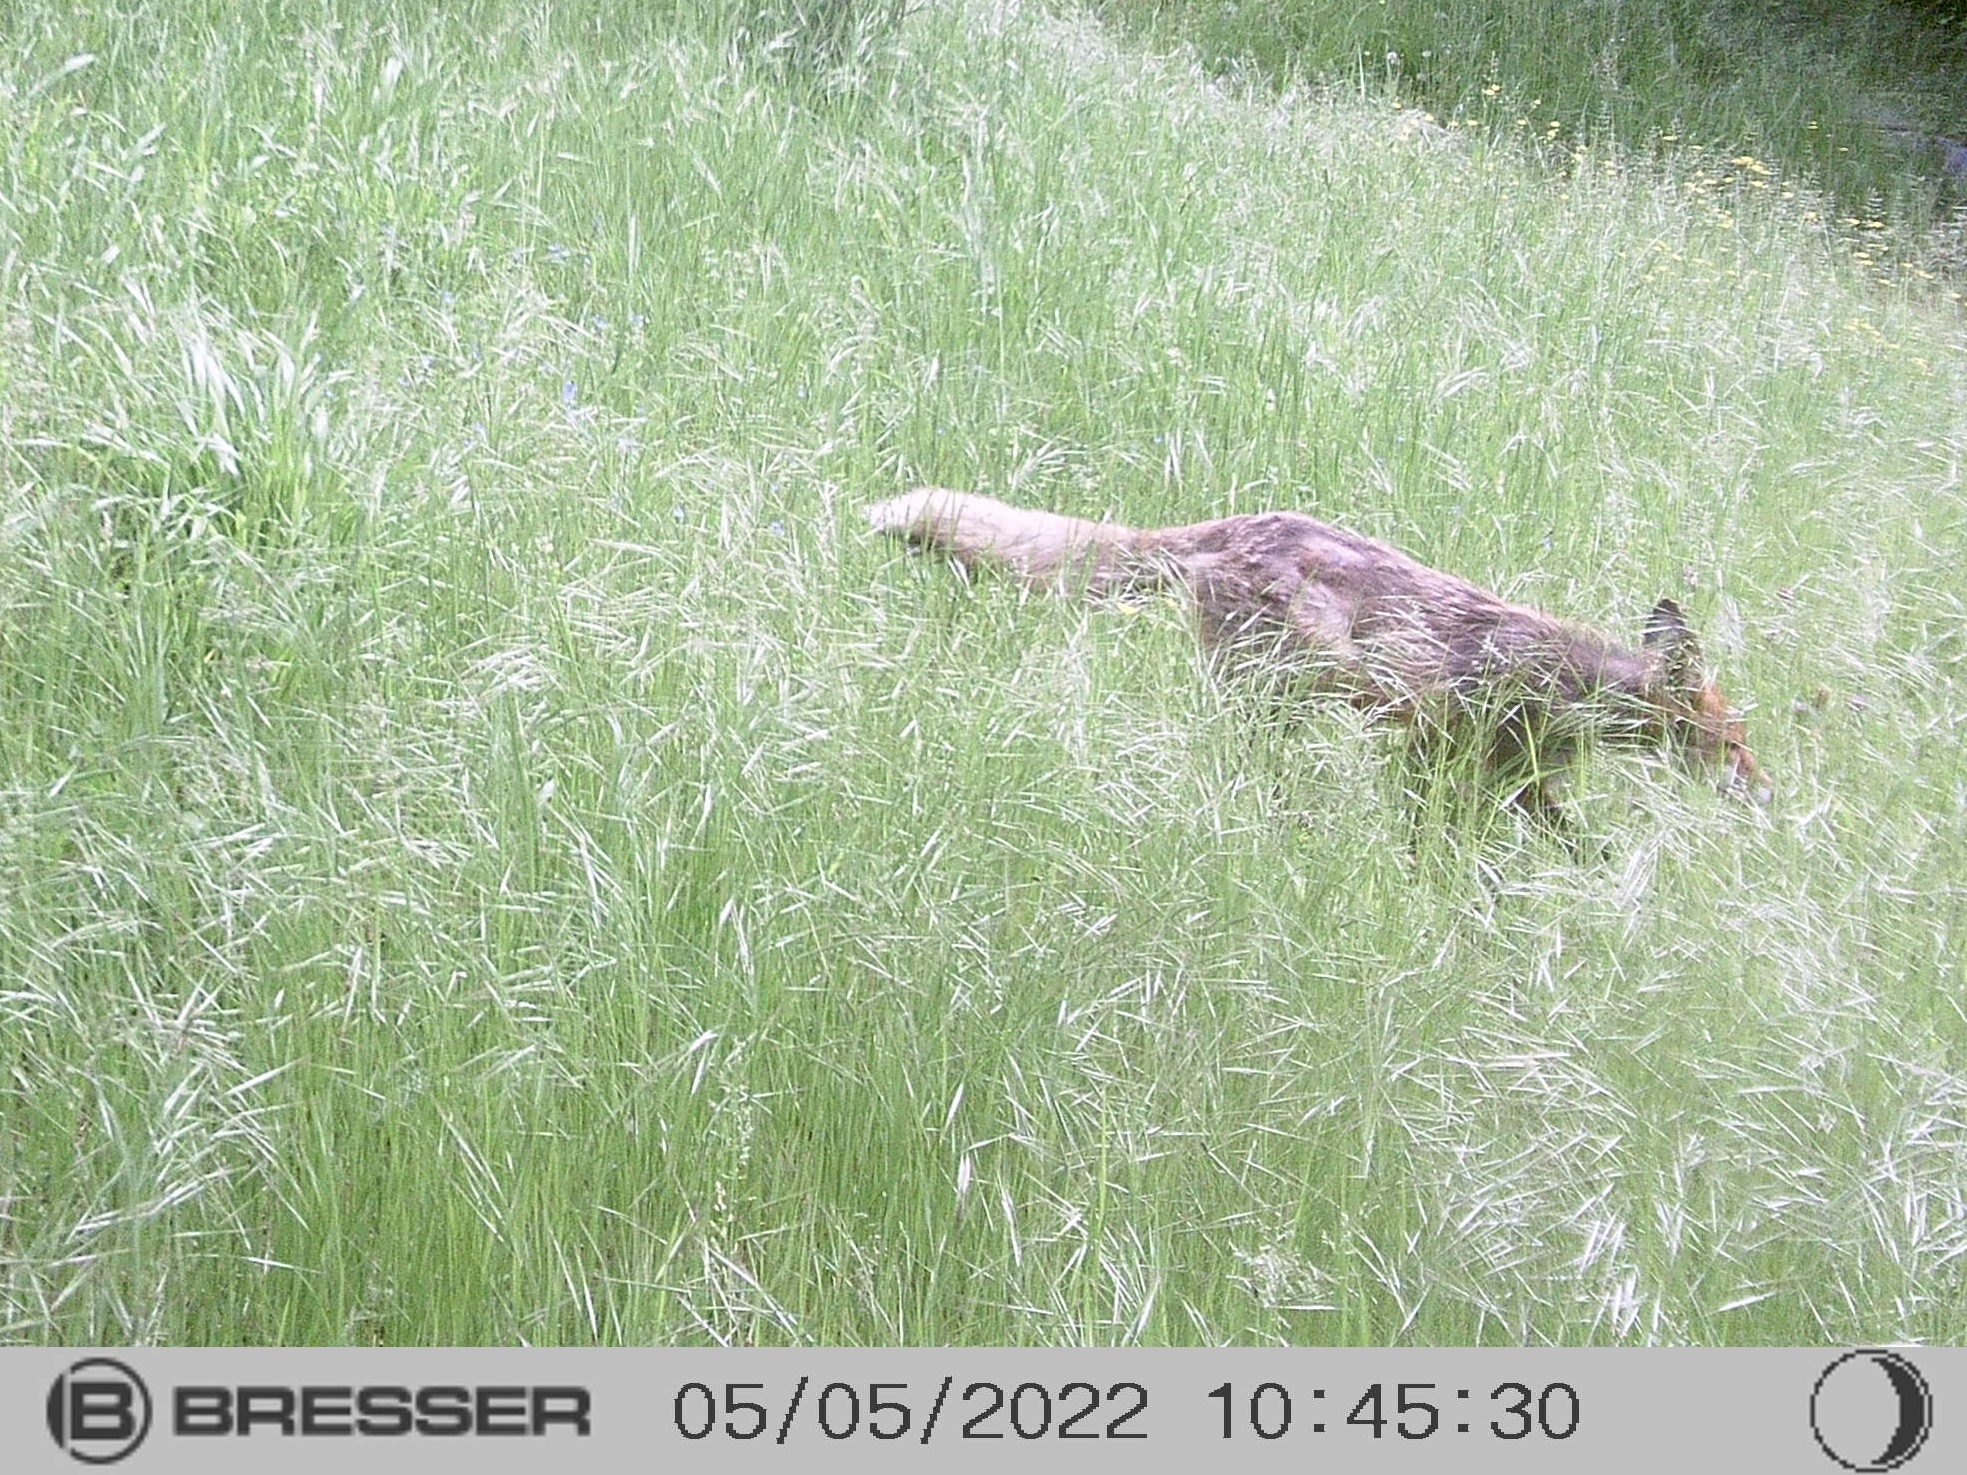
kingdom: Animalia
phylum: Chordata
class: Mammalia
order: Carnivora
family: Canidae
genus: Vulpes
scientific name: Vulpes vulpes
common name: Red fox
